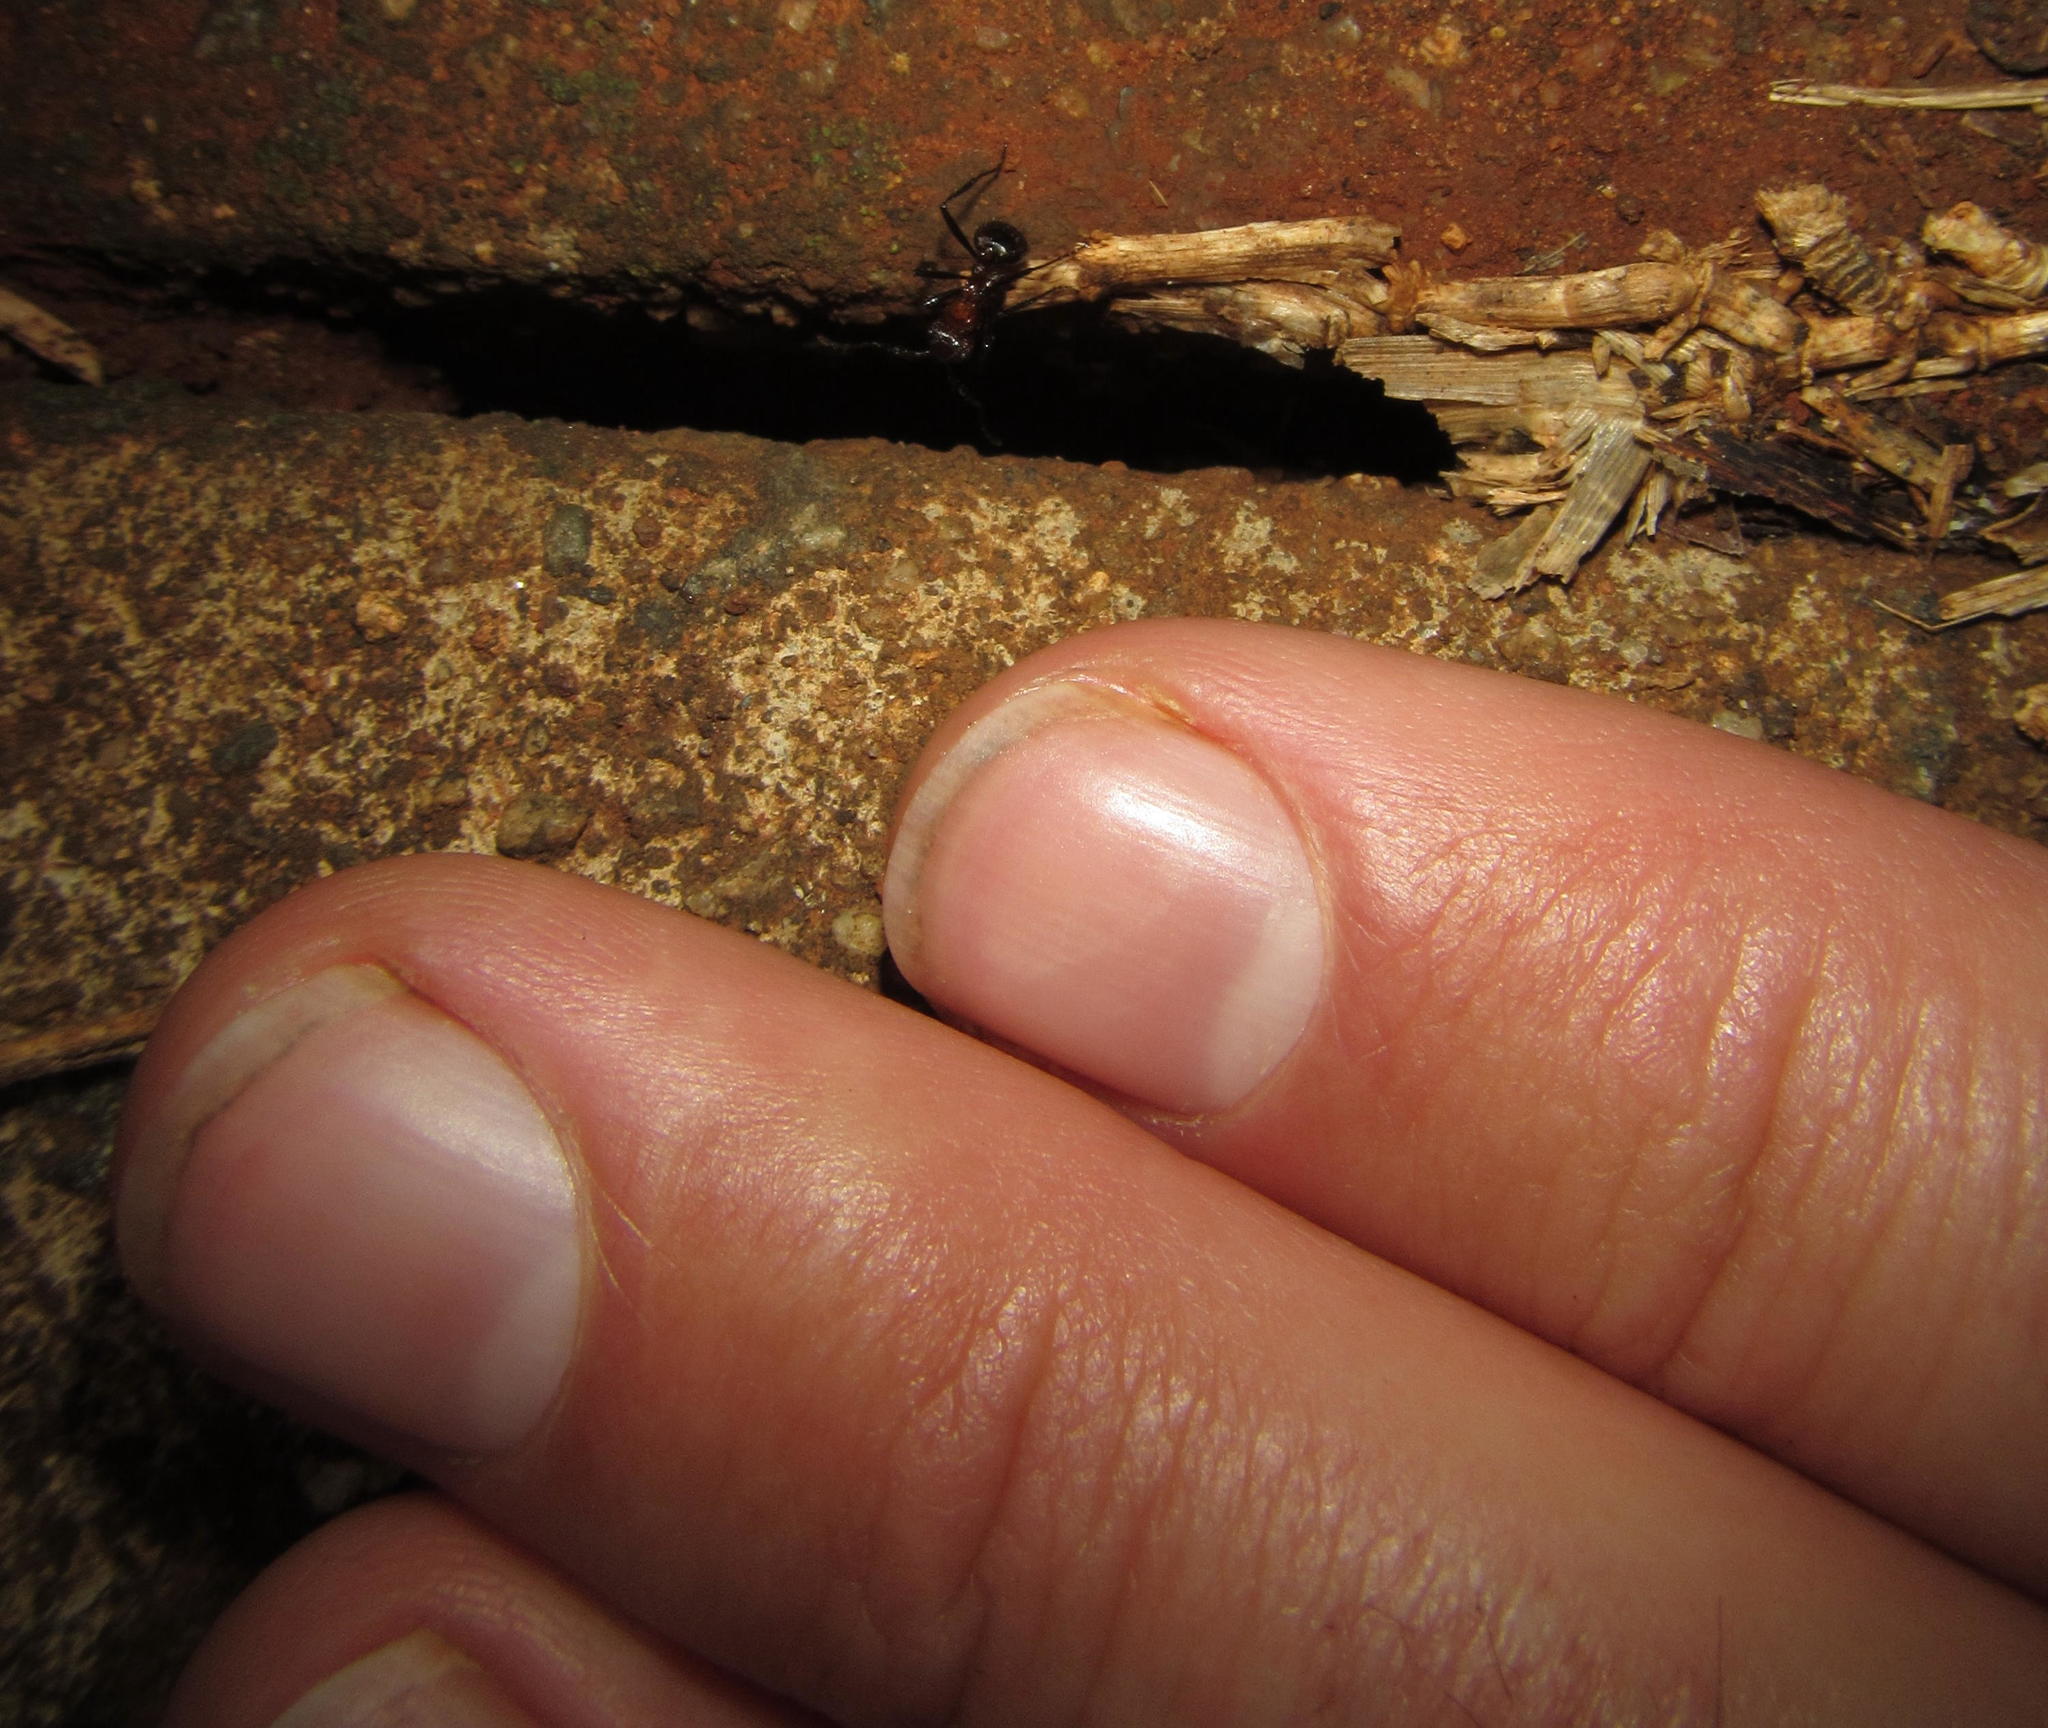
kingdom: Animalia
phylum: Arthropoda
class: Insecta
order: Hymenoptera
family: Formicidae
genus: Myrmicaria
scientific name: Myrmicaria natalensis
